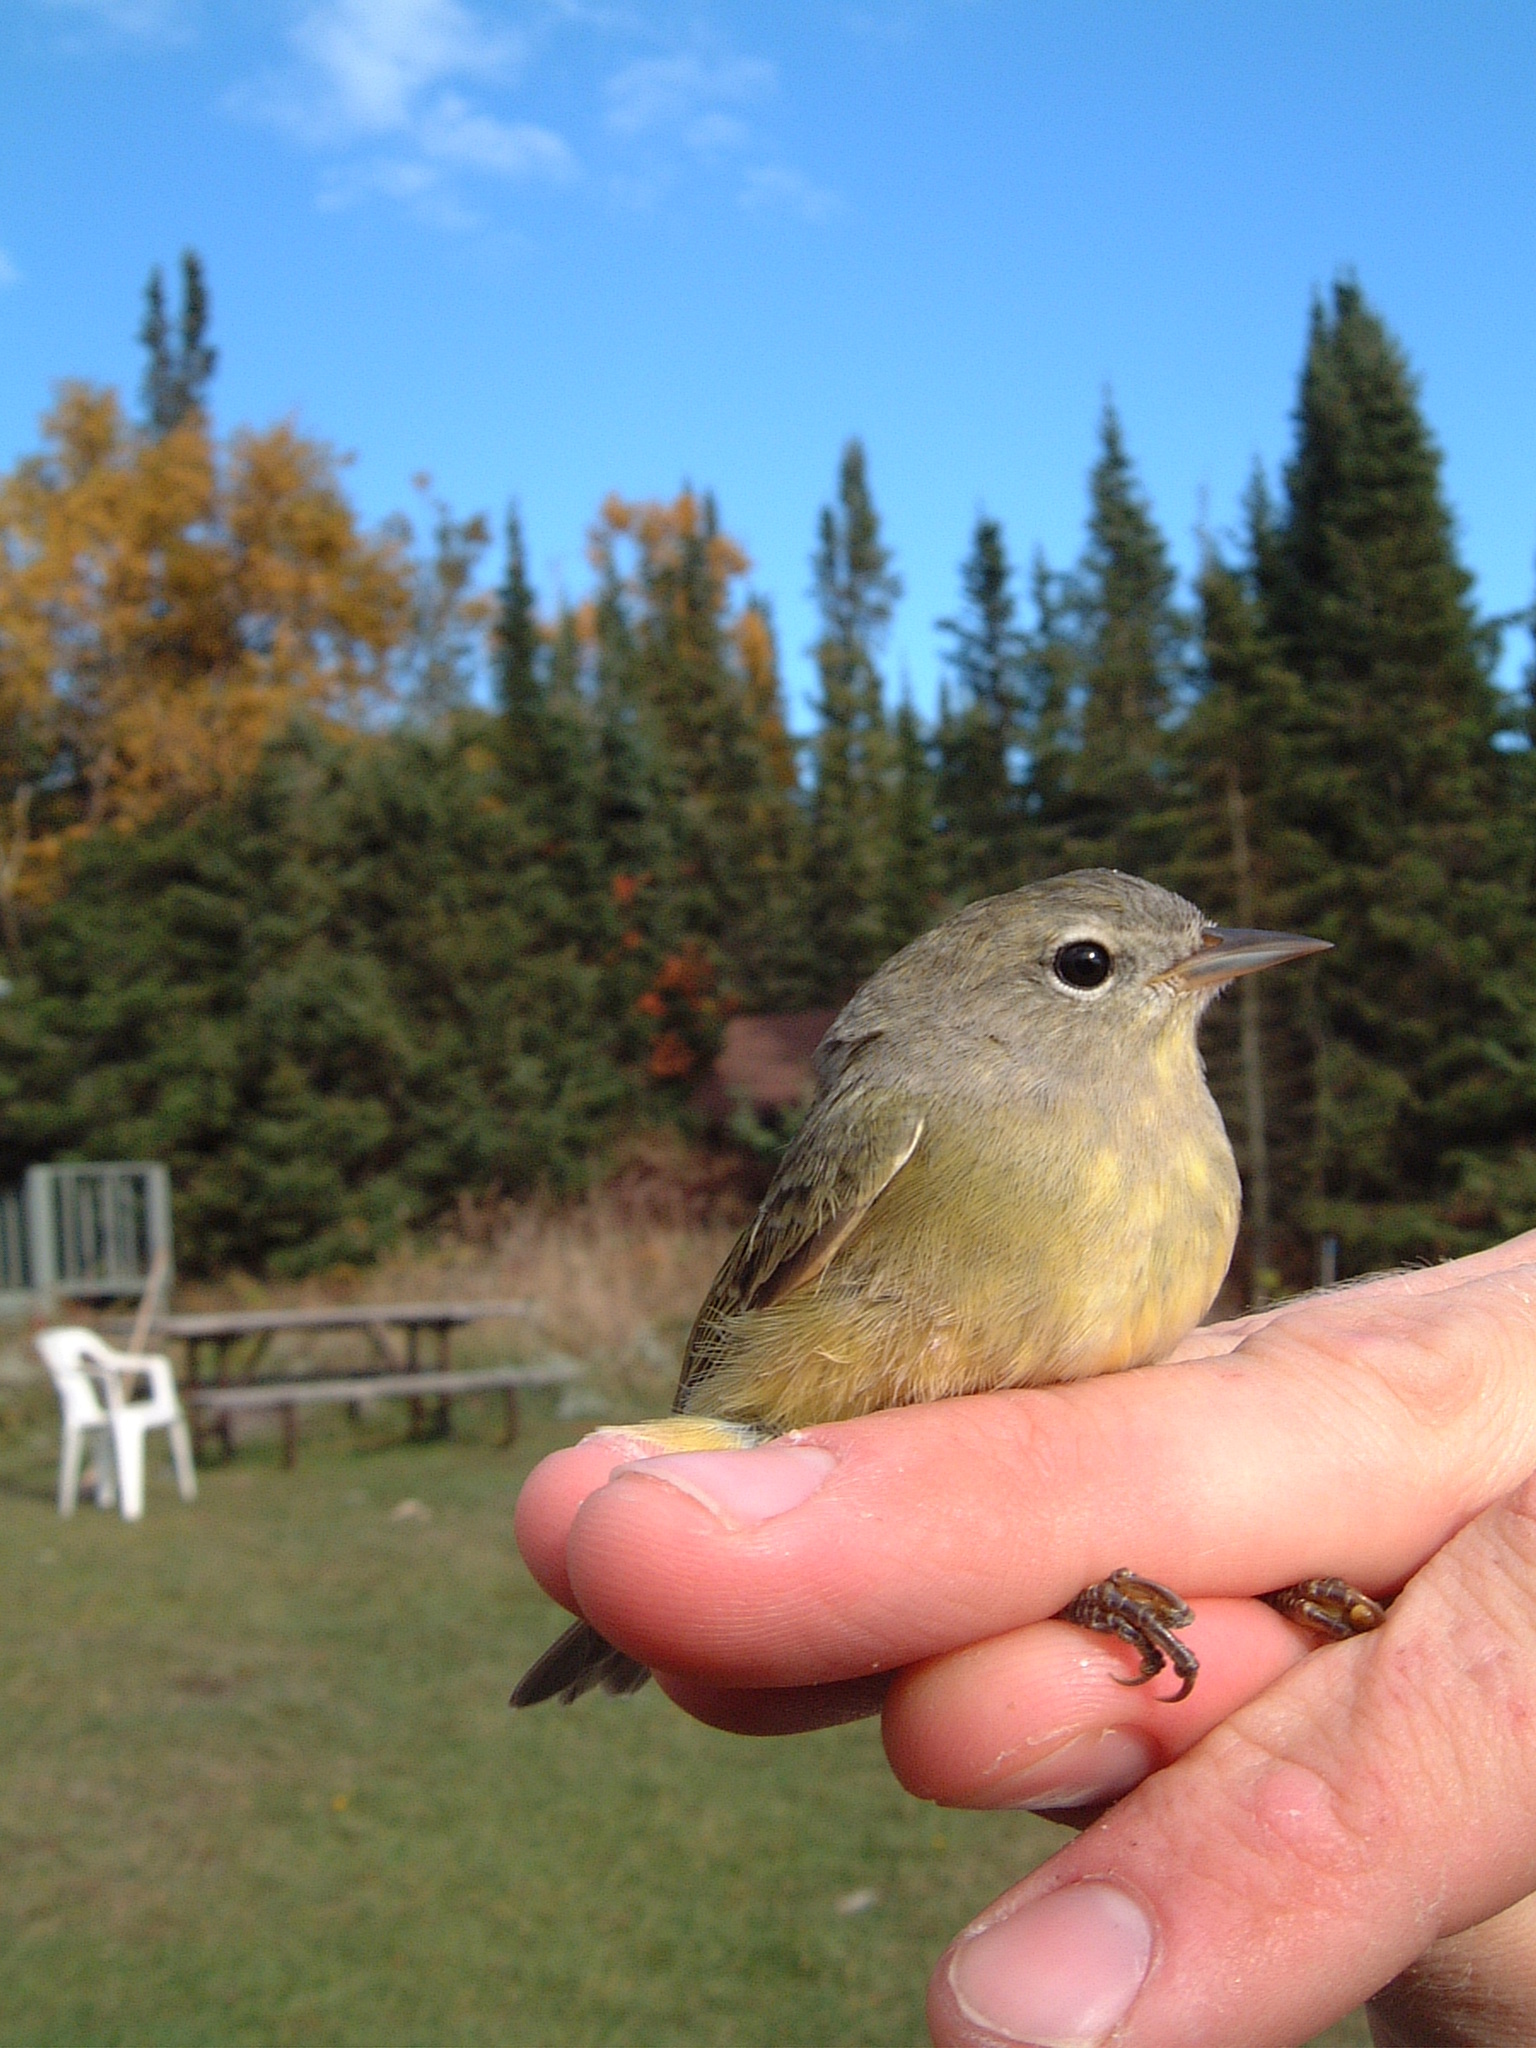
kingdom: Animalia
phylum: Chordata
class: Aves
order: Passeriformes
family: Parulidae
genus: Leiothlypis
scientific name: Leiothlypis celata
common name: Orange-crowned warbler
